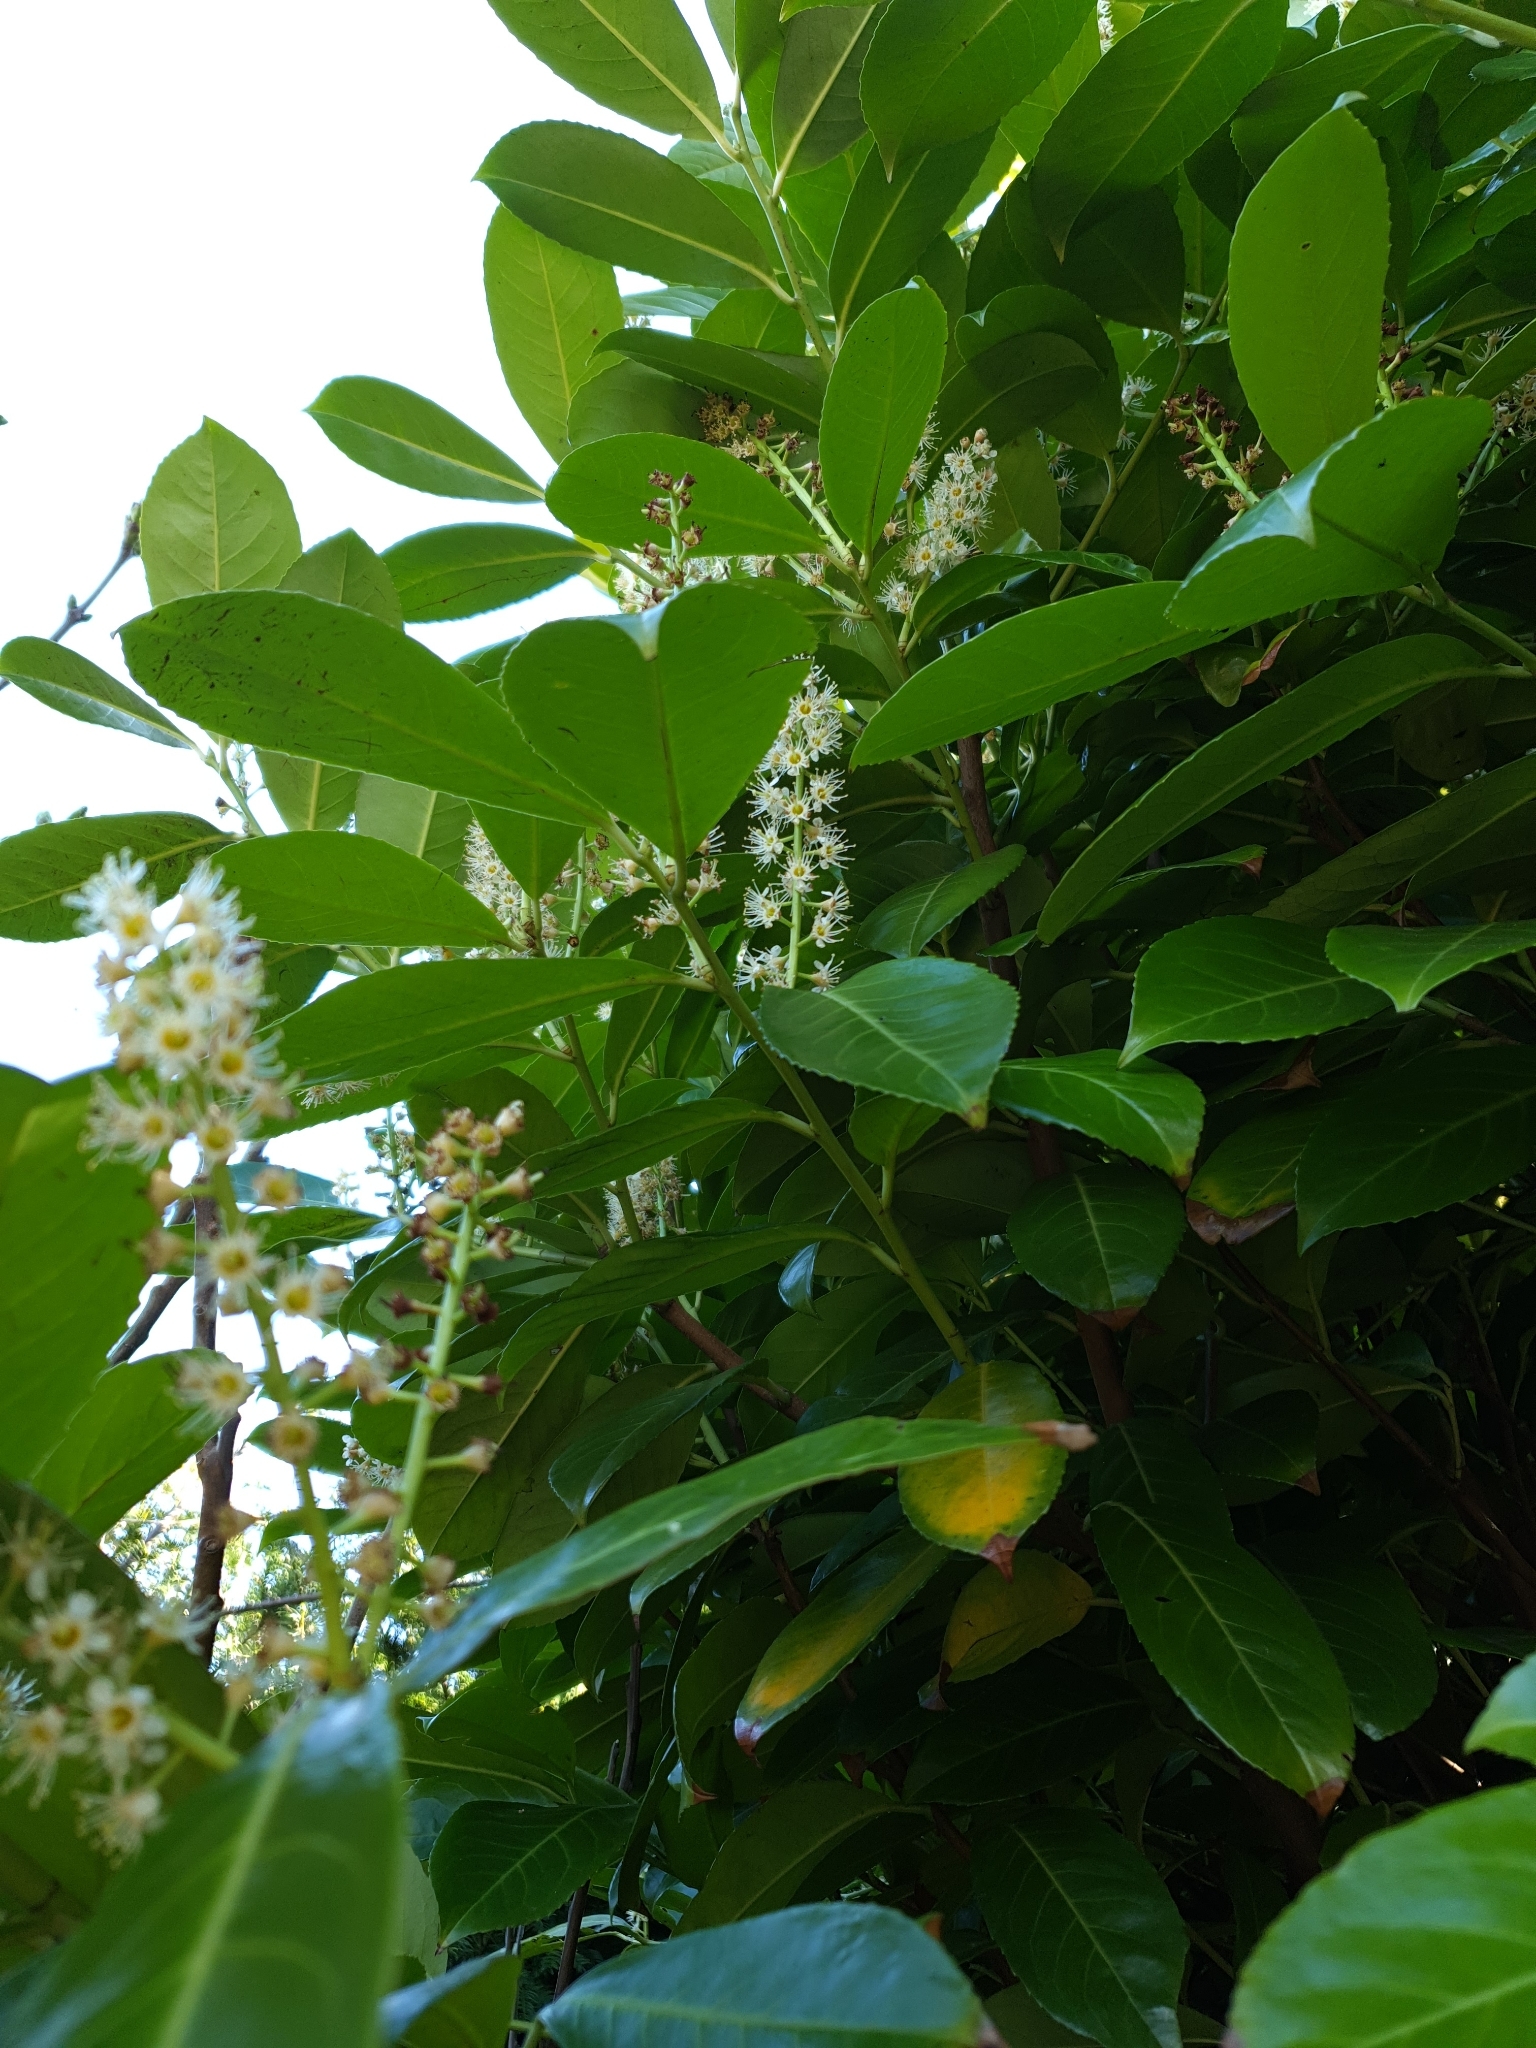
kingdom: Plantae
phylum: Tracheophyta
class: Magnoliopsida
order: Rosales
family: Rosaceae
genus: Prunus
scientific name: Prunus laurocerasus
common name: Cherry laurel
